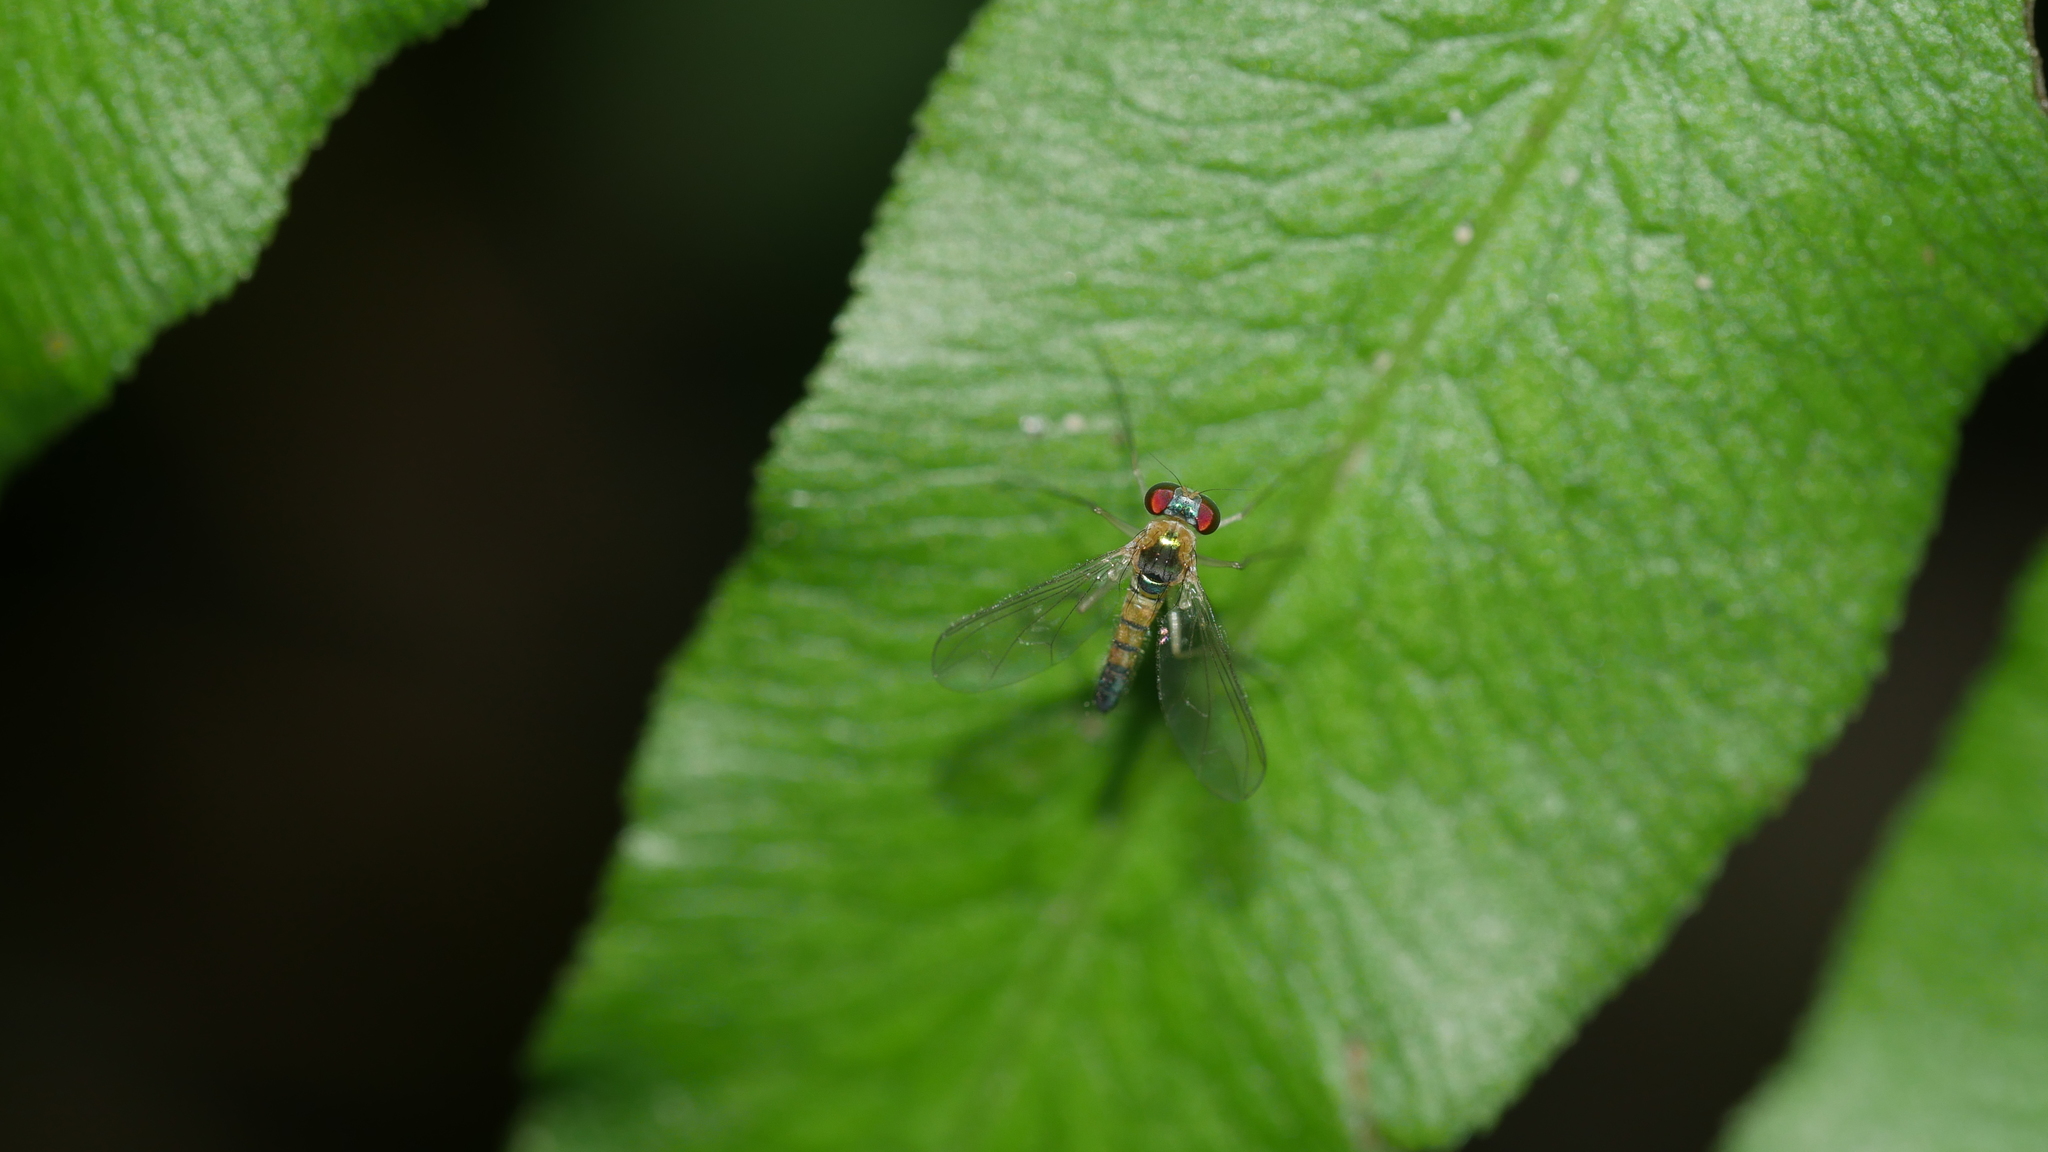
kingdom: Animalia
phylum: Arthropoda
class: Insecta
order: Diptera
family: Dolichopodidae
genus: Amblypsilopus
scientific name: Amblypsilopus dorsalis
